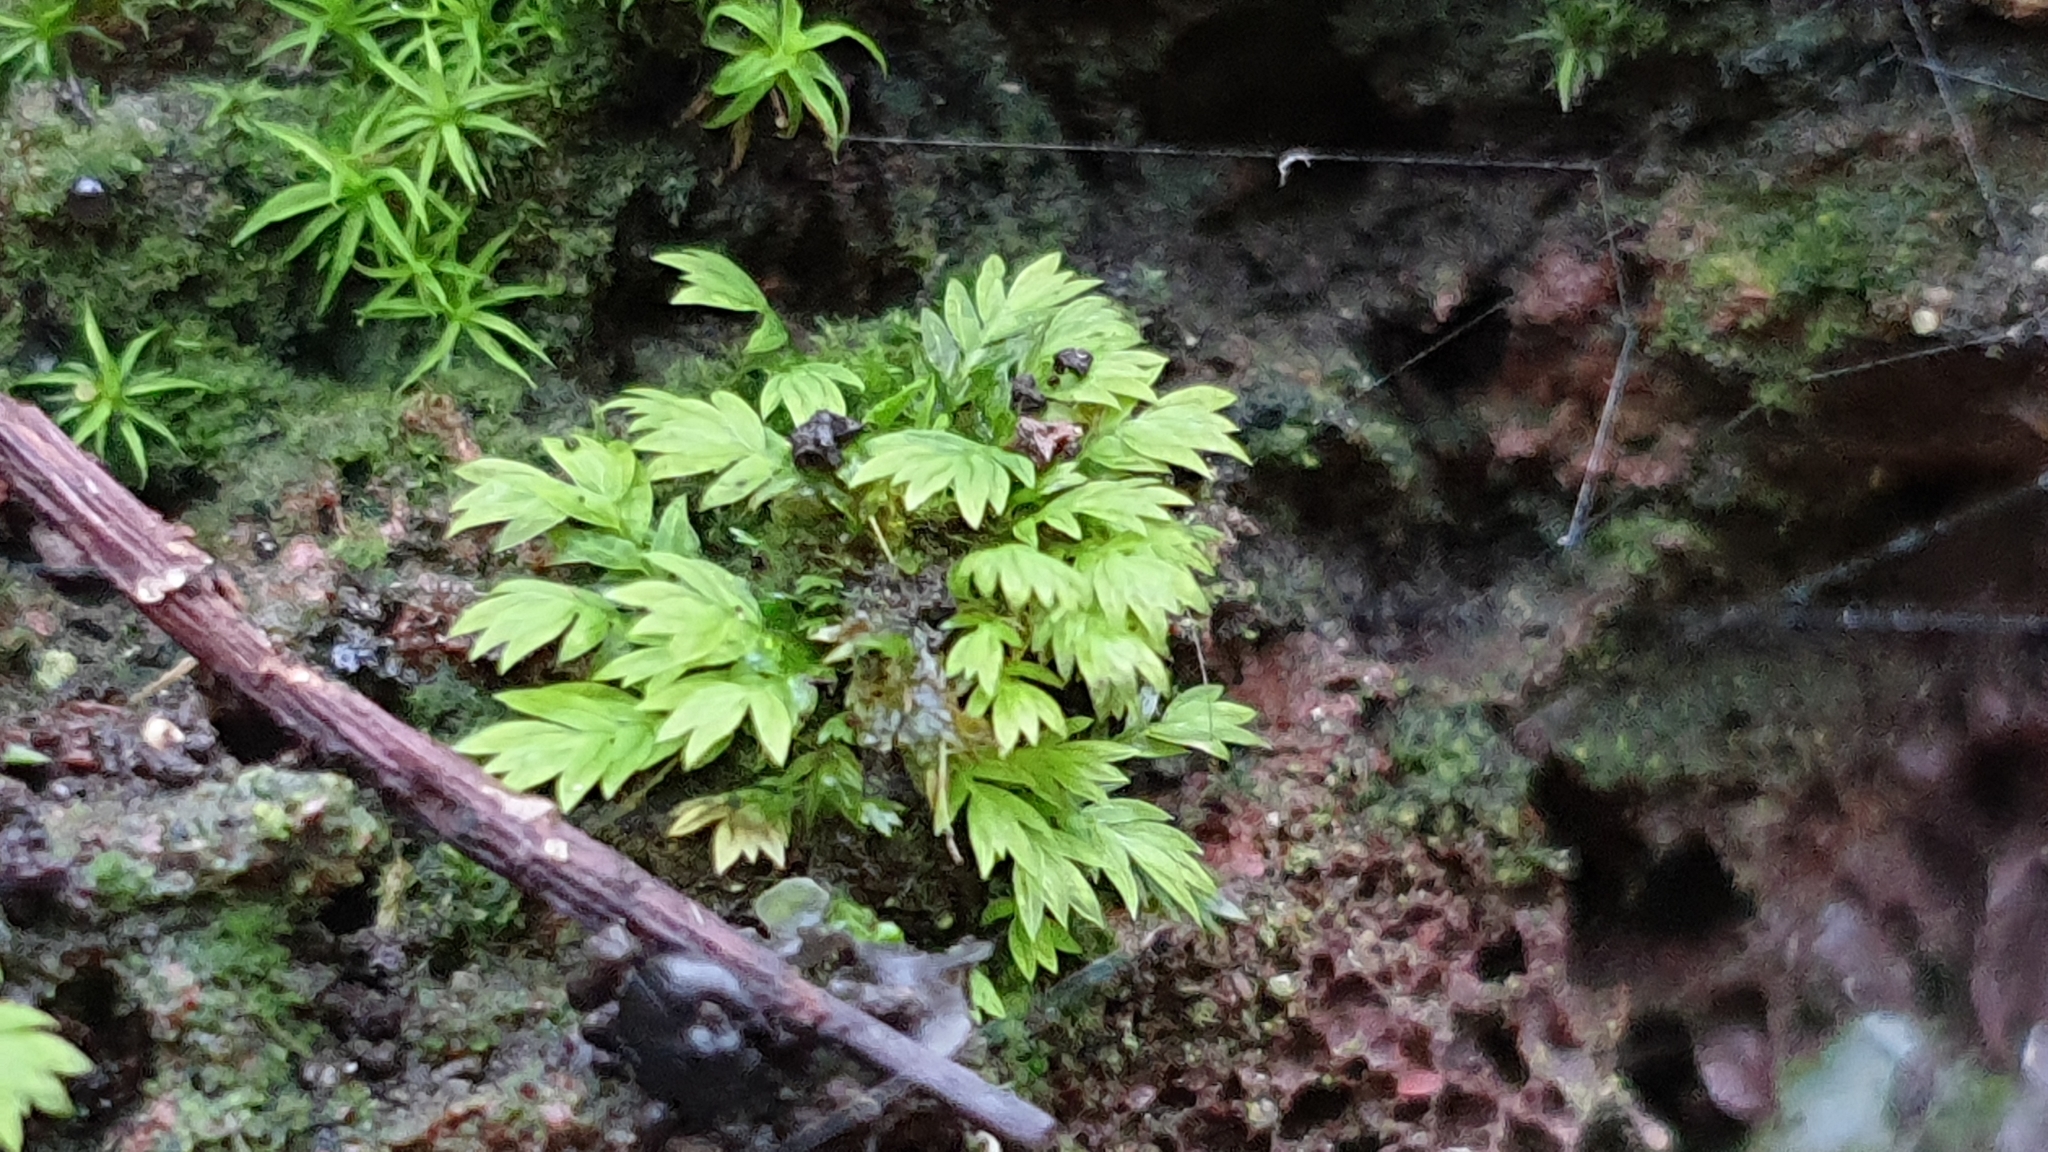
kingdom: Plantae
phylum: Bryophyta
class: Bryopsida
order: Dicranales
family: Fissidentaceae
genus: Fissidens
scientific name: Fissidens megalotis
